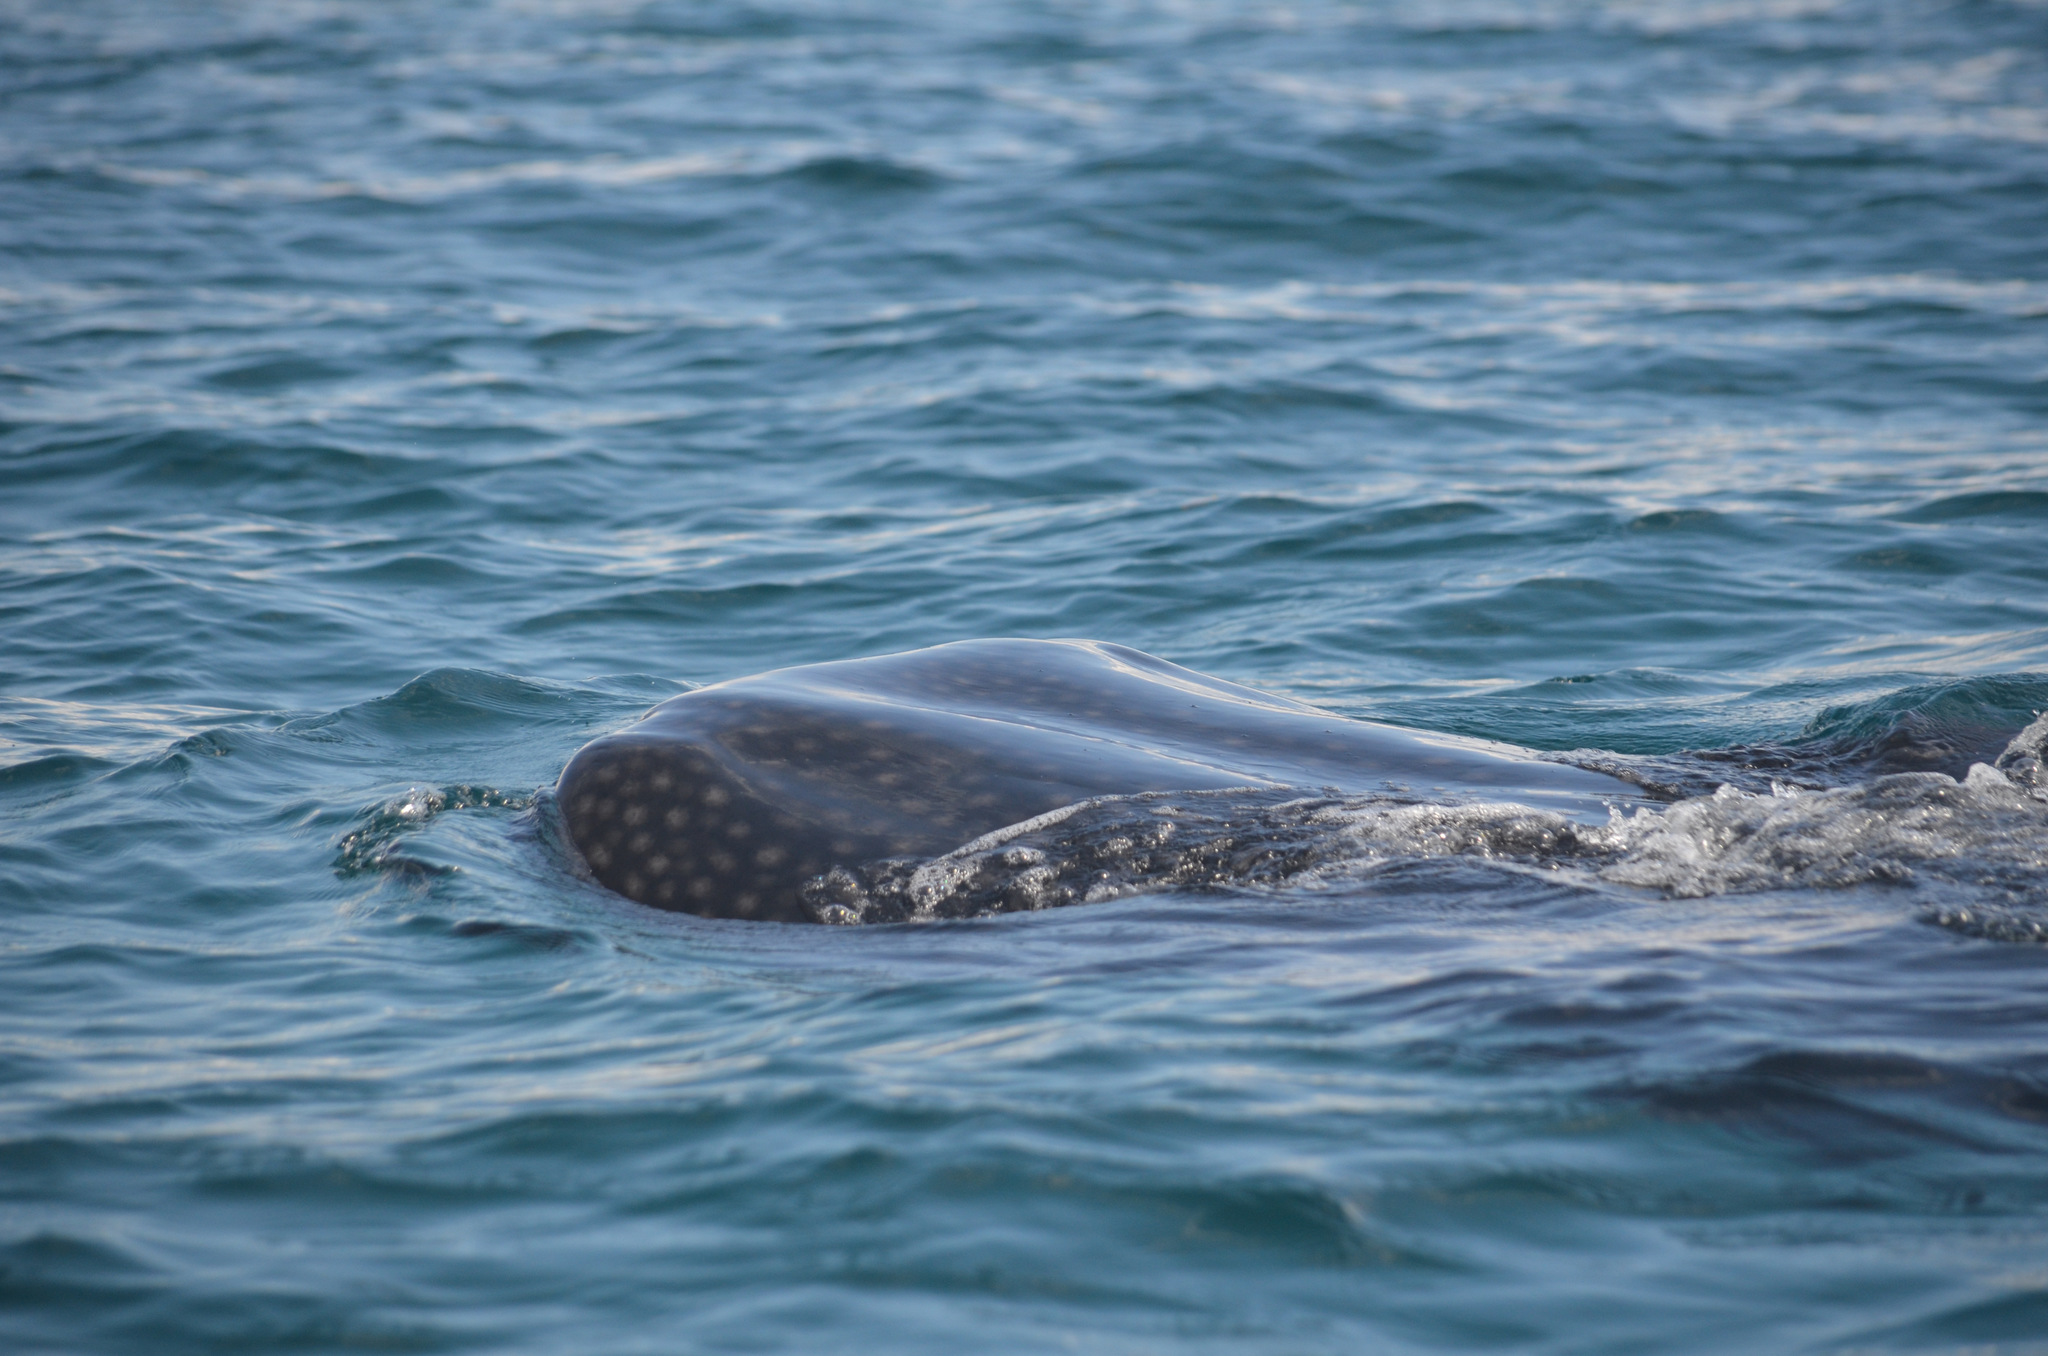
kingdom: Animalia
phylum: Chordata
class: Elasmobranchii
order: Orectolobiformes
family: Rhincodontidae
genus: Rhincodon
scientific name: Rhincodon typus
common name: Whale shark
